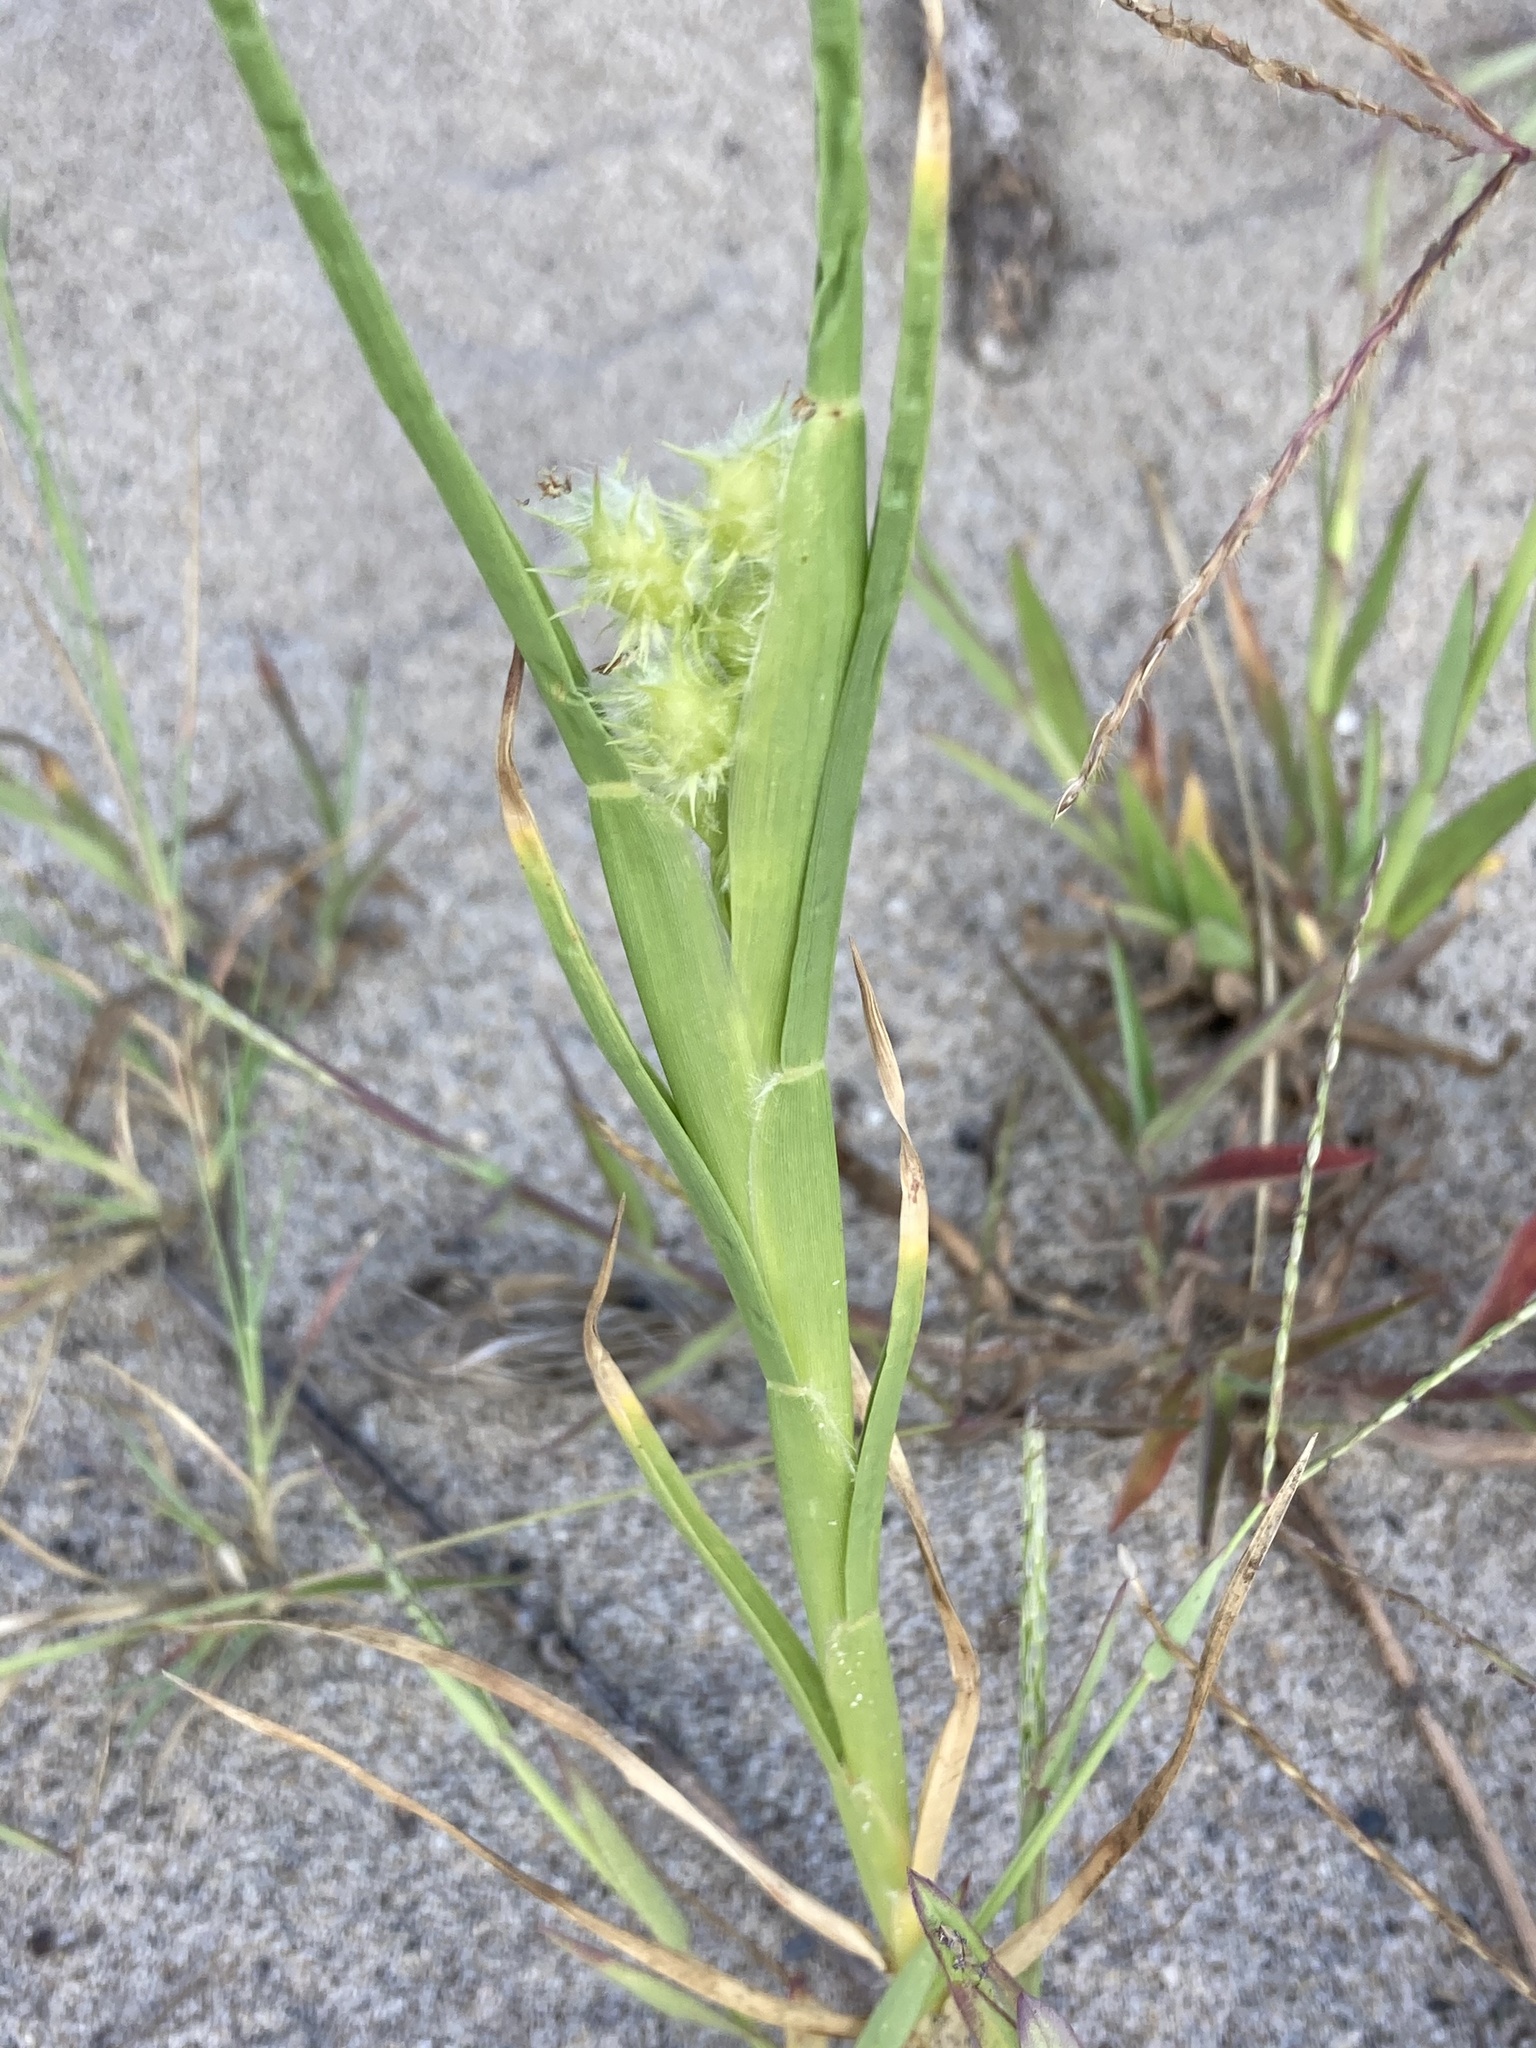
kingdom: Plantae
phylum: Tracheophyta
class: Liliopsida
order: Poales
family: Poaceae
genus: Cenchrus
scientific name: Cenchrus tribuloides
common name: Dune sandbur
